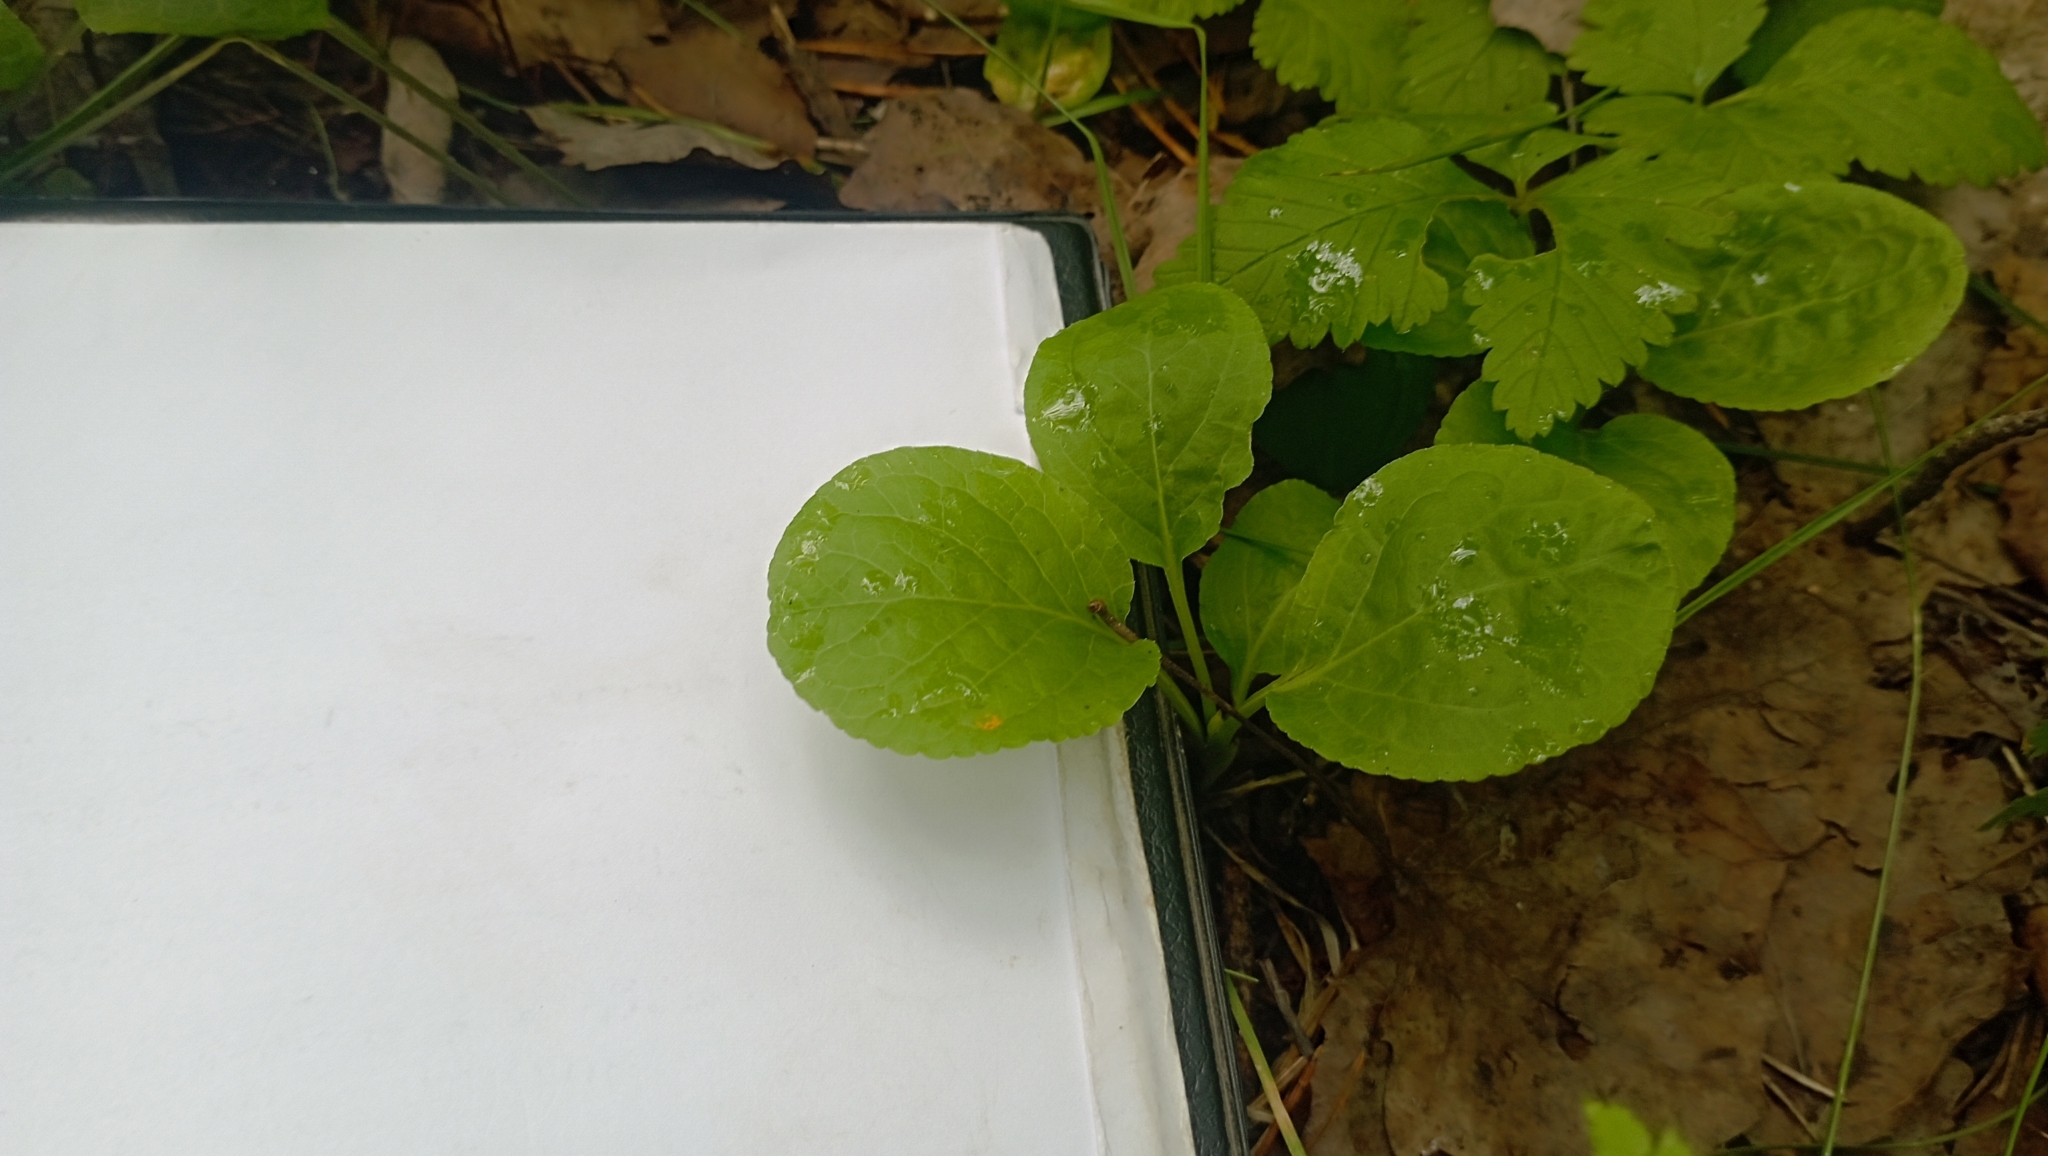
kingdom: Plantae
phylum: Tracheophyta
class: Magnoliopsida
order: Ericales
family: Ericaceae
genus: Pyrola
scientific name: Pyrola
